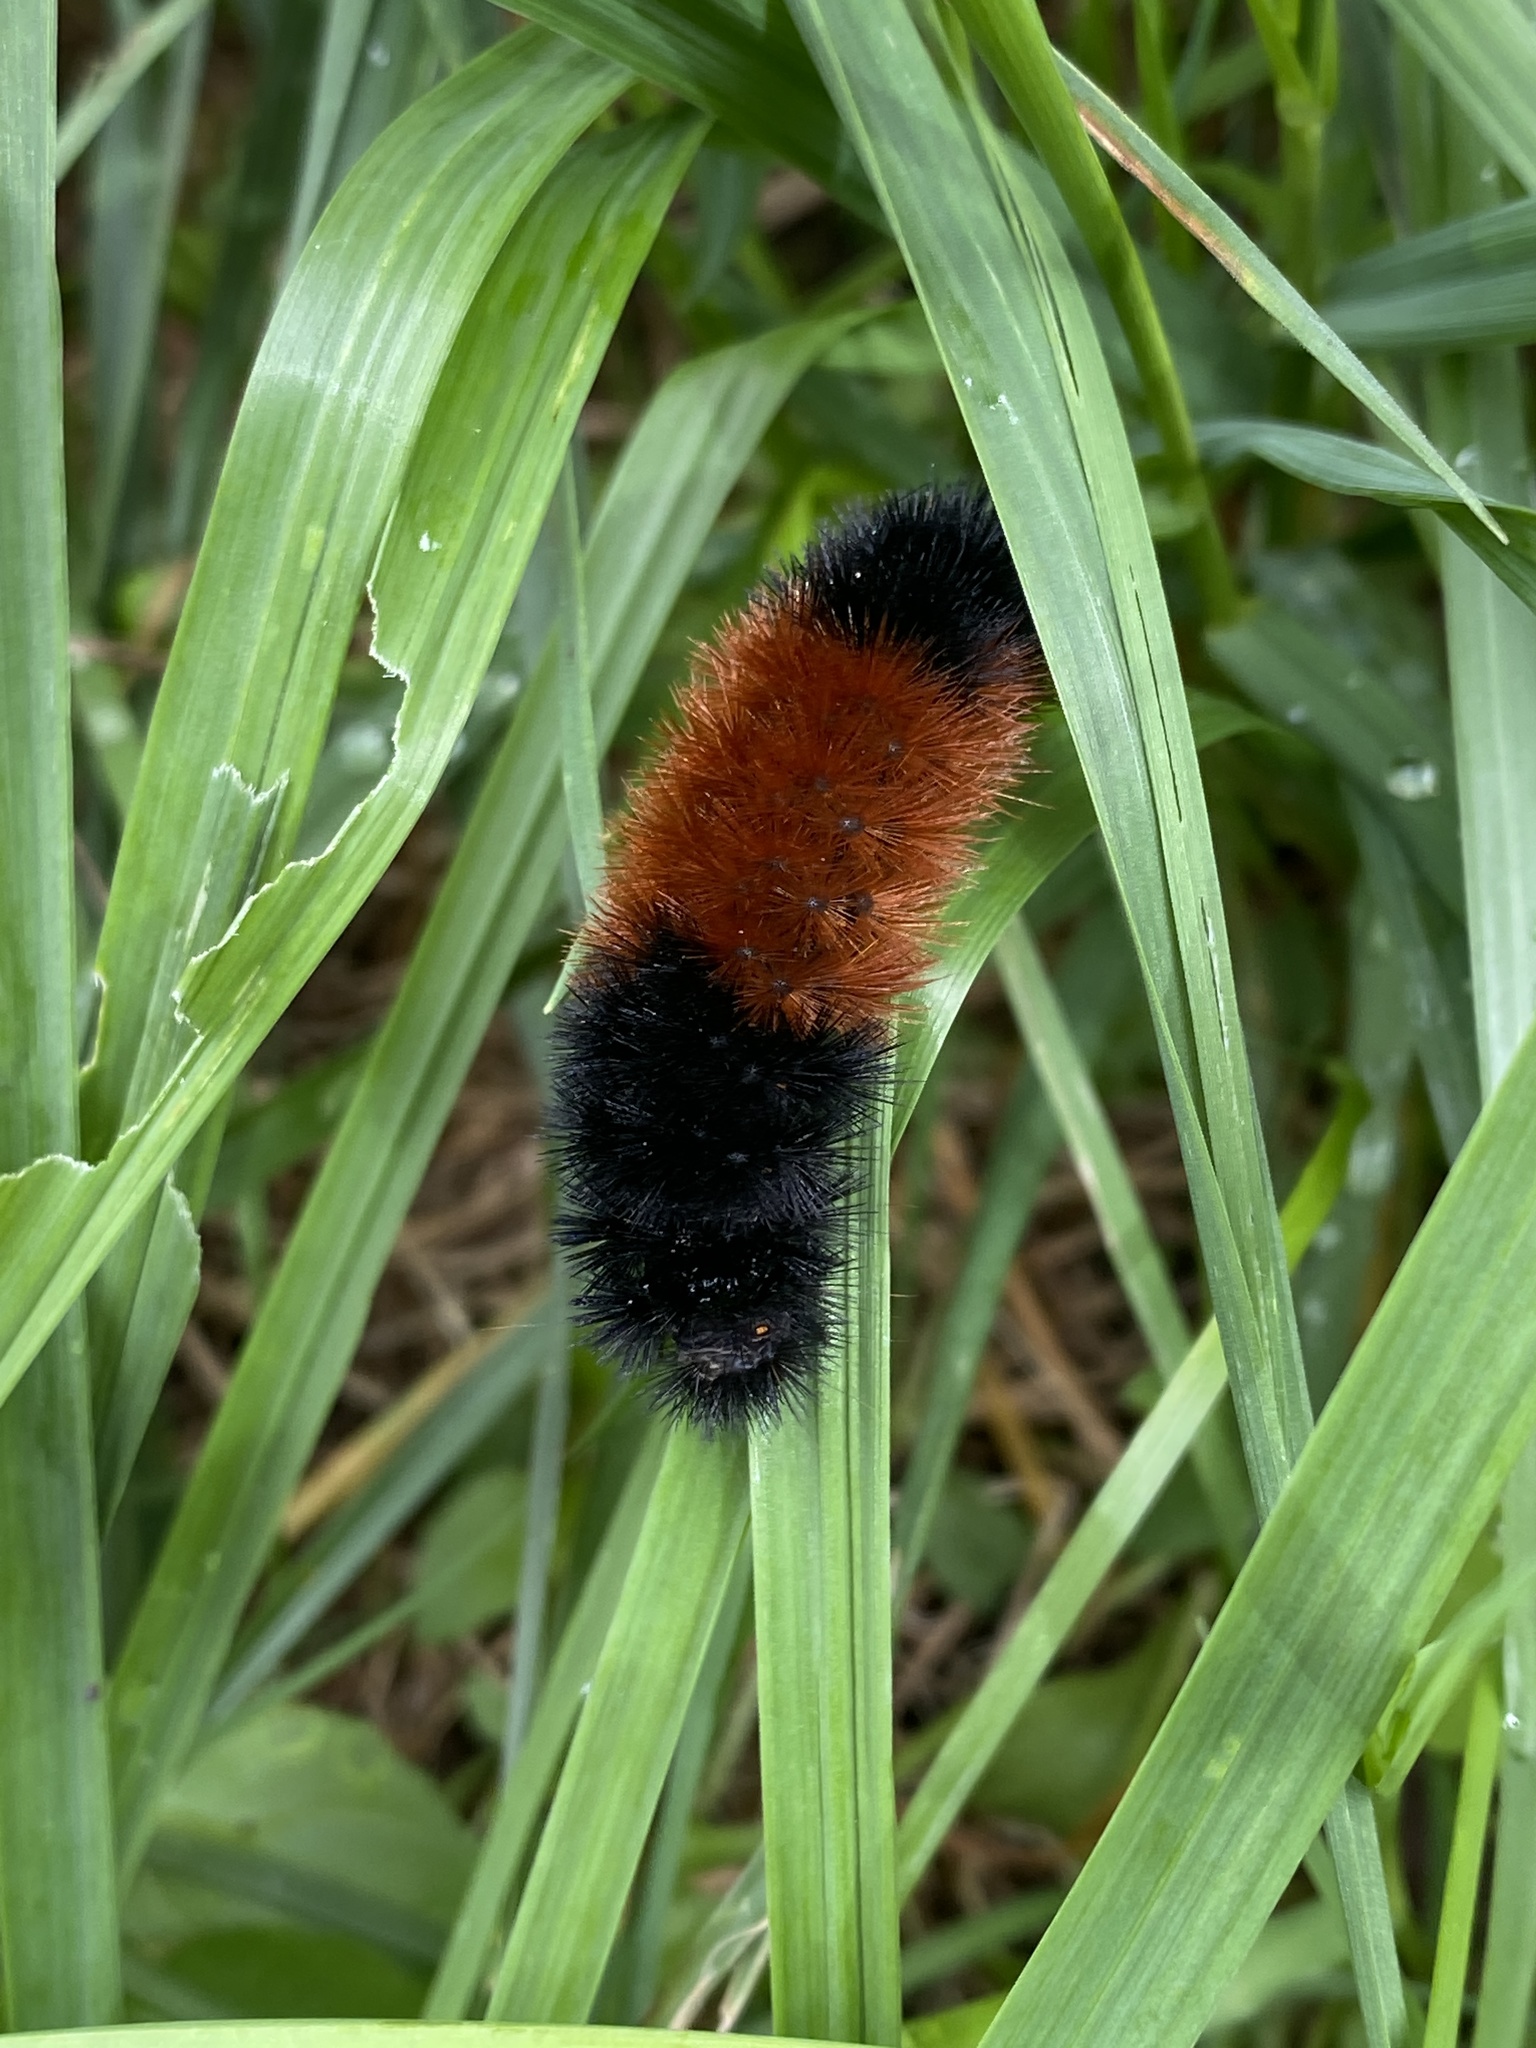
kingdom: Animalia
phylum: Arthropoda
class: Insecta
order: Lepidoptera
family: Erebidae
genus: Pyrrharctia
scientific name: Pyrrharctia isabella
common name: Isabella tiger moth
